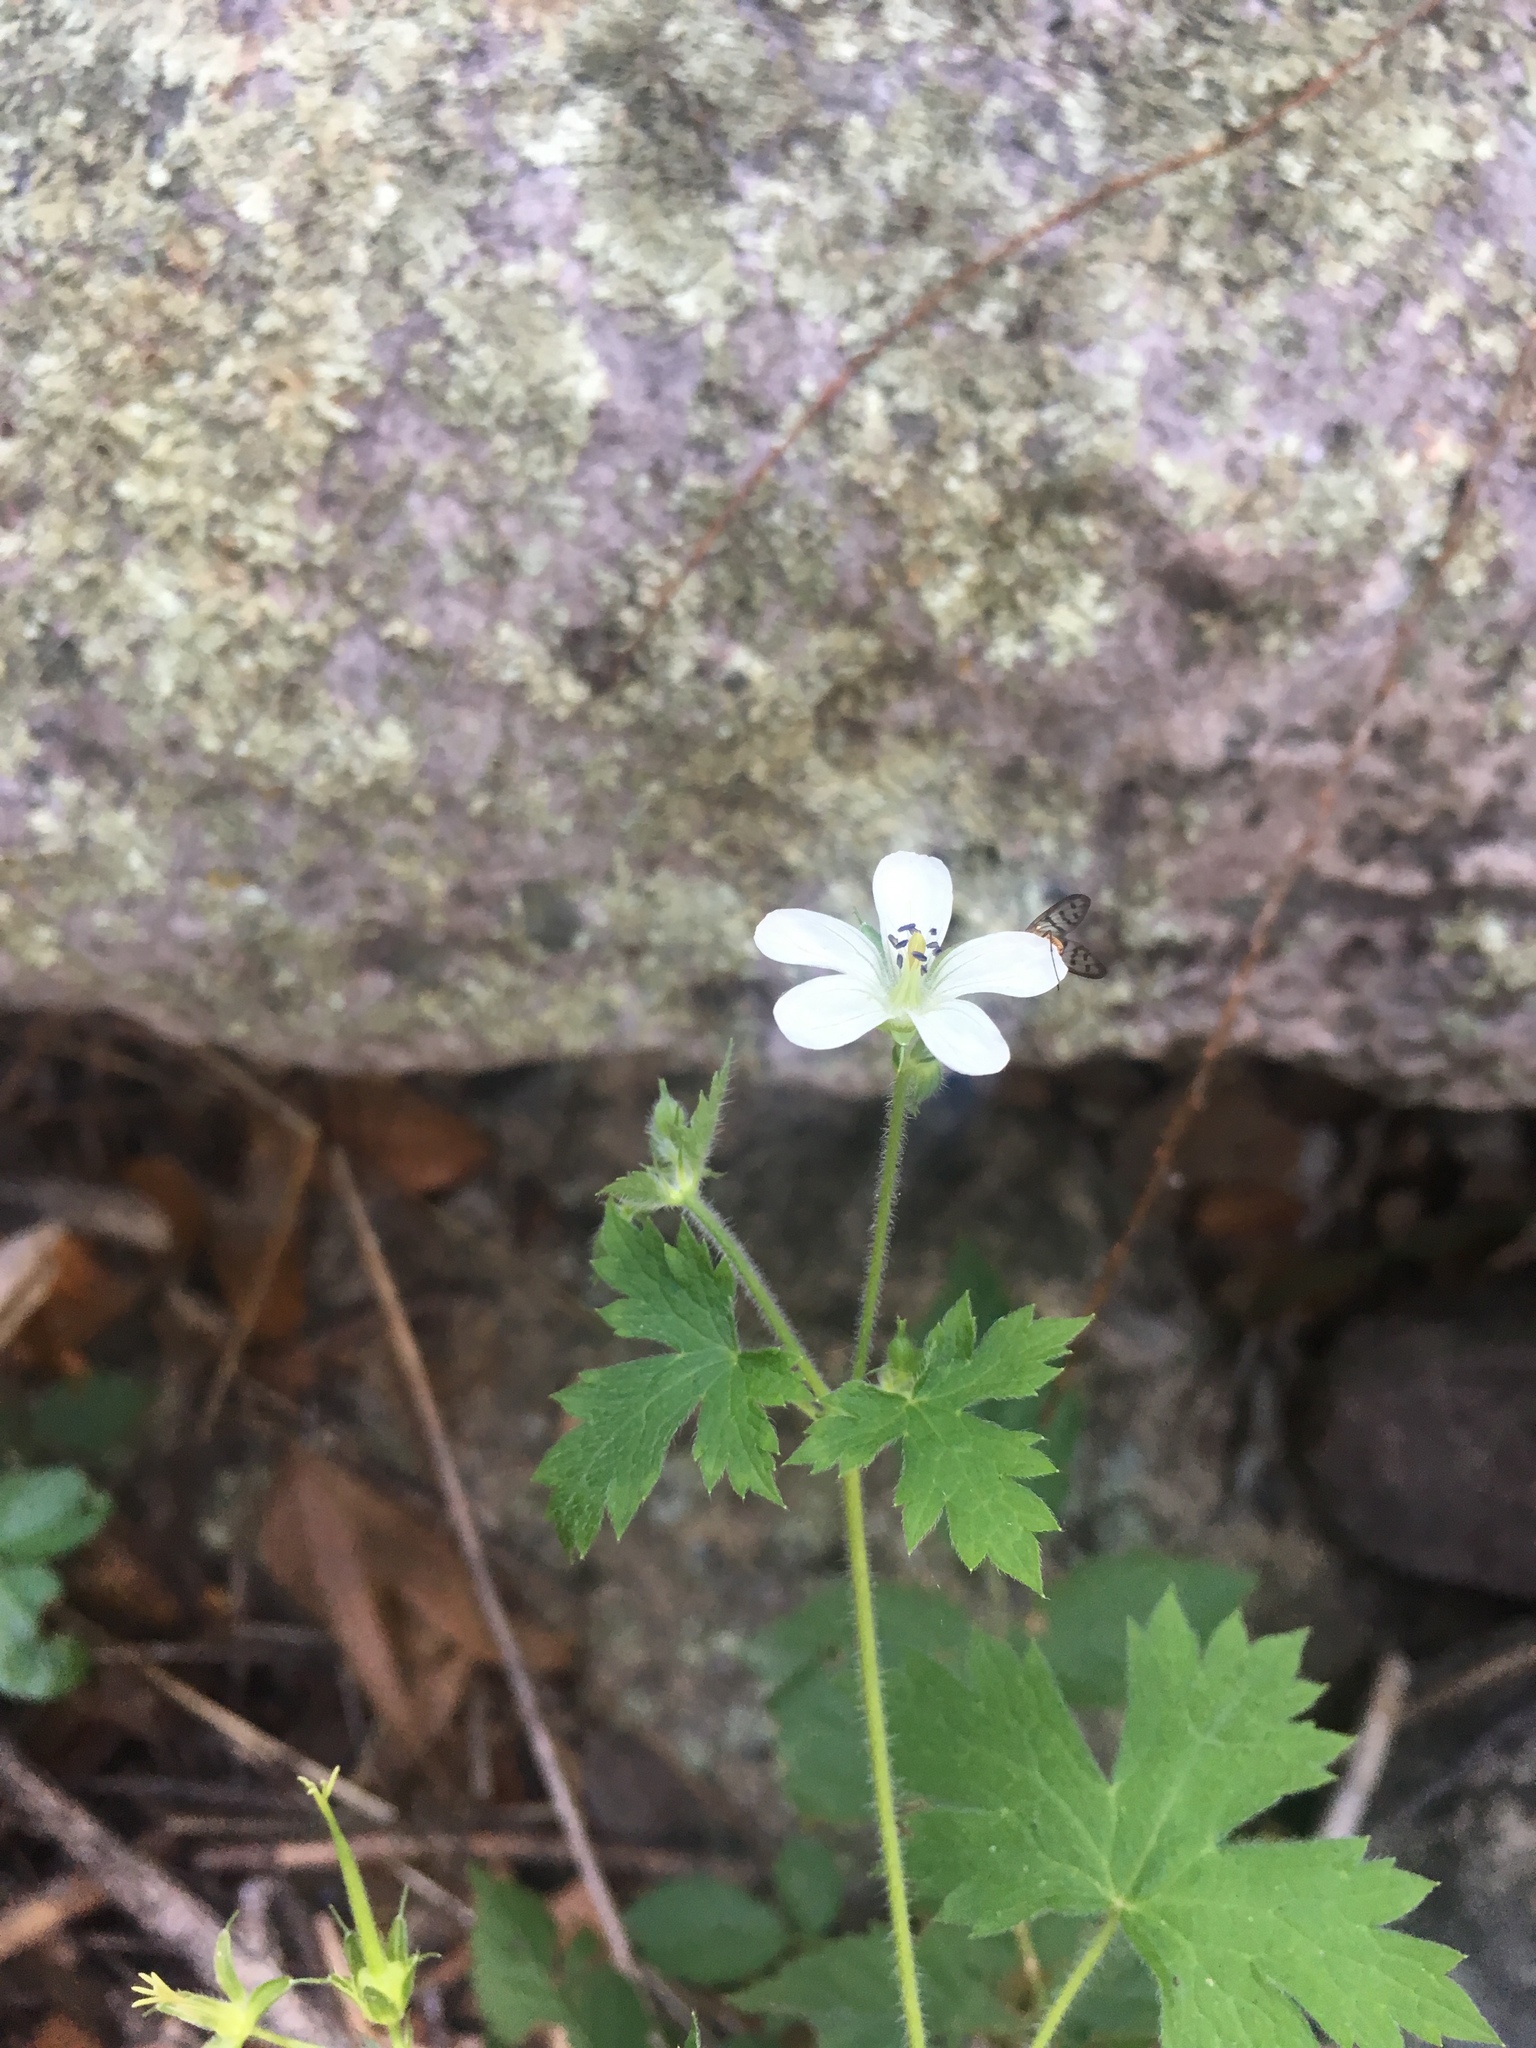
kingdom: Plantae
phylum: Tracheophyta
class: Magnoliopsida
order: Geraniales
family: Geraniaceae
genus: Geranium
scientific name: Geranium wislizeni
